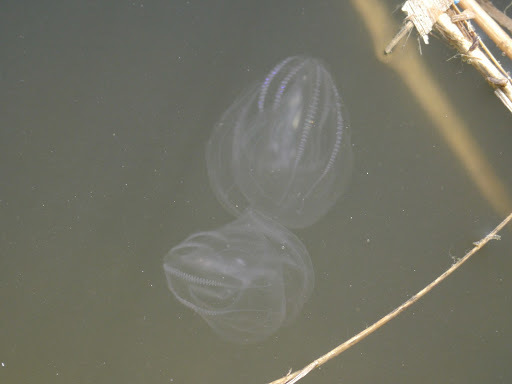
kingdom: Animalia
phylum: Ctenophora
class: Tentaculata
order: Lobata
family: Bolinopsidae
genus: Mnemiopsis
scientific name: Mnemiopsis leidyi
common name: American comb jelly
